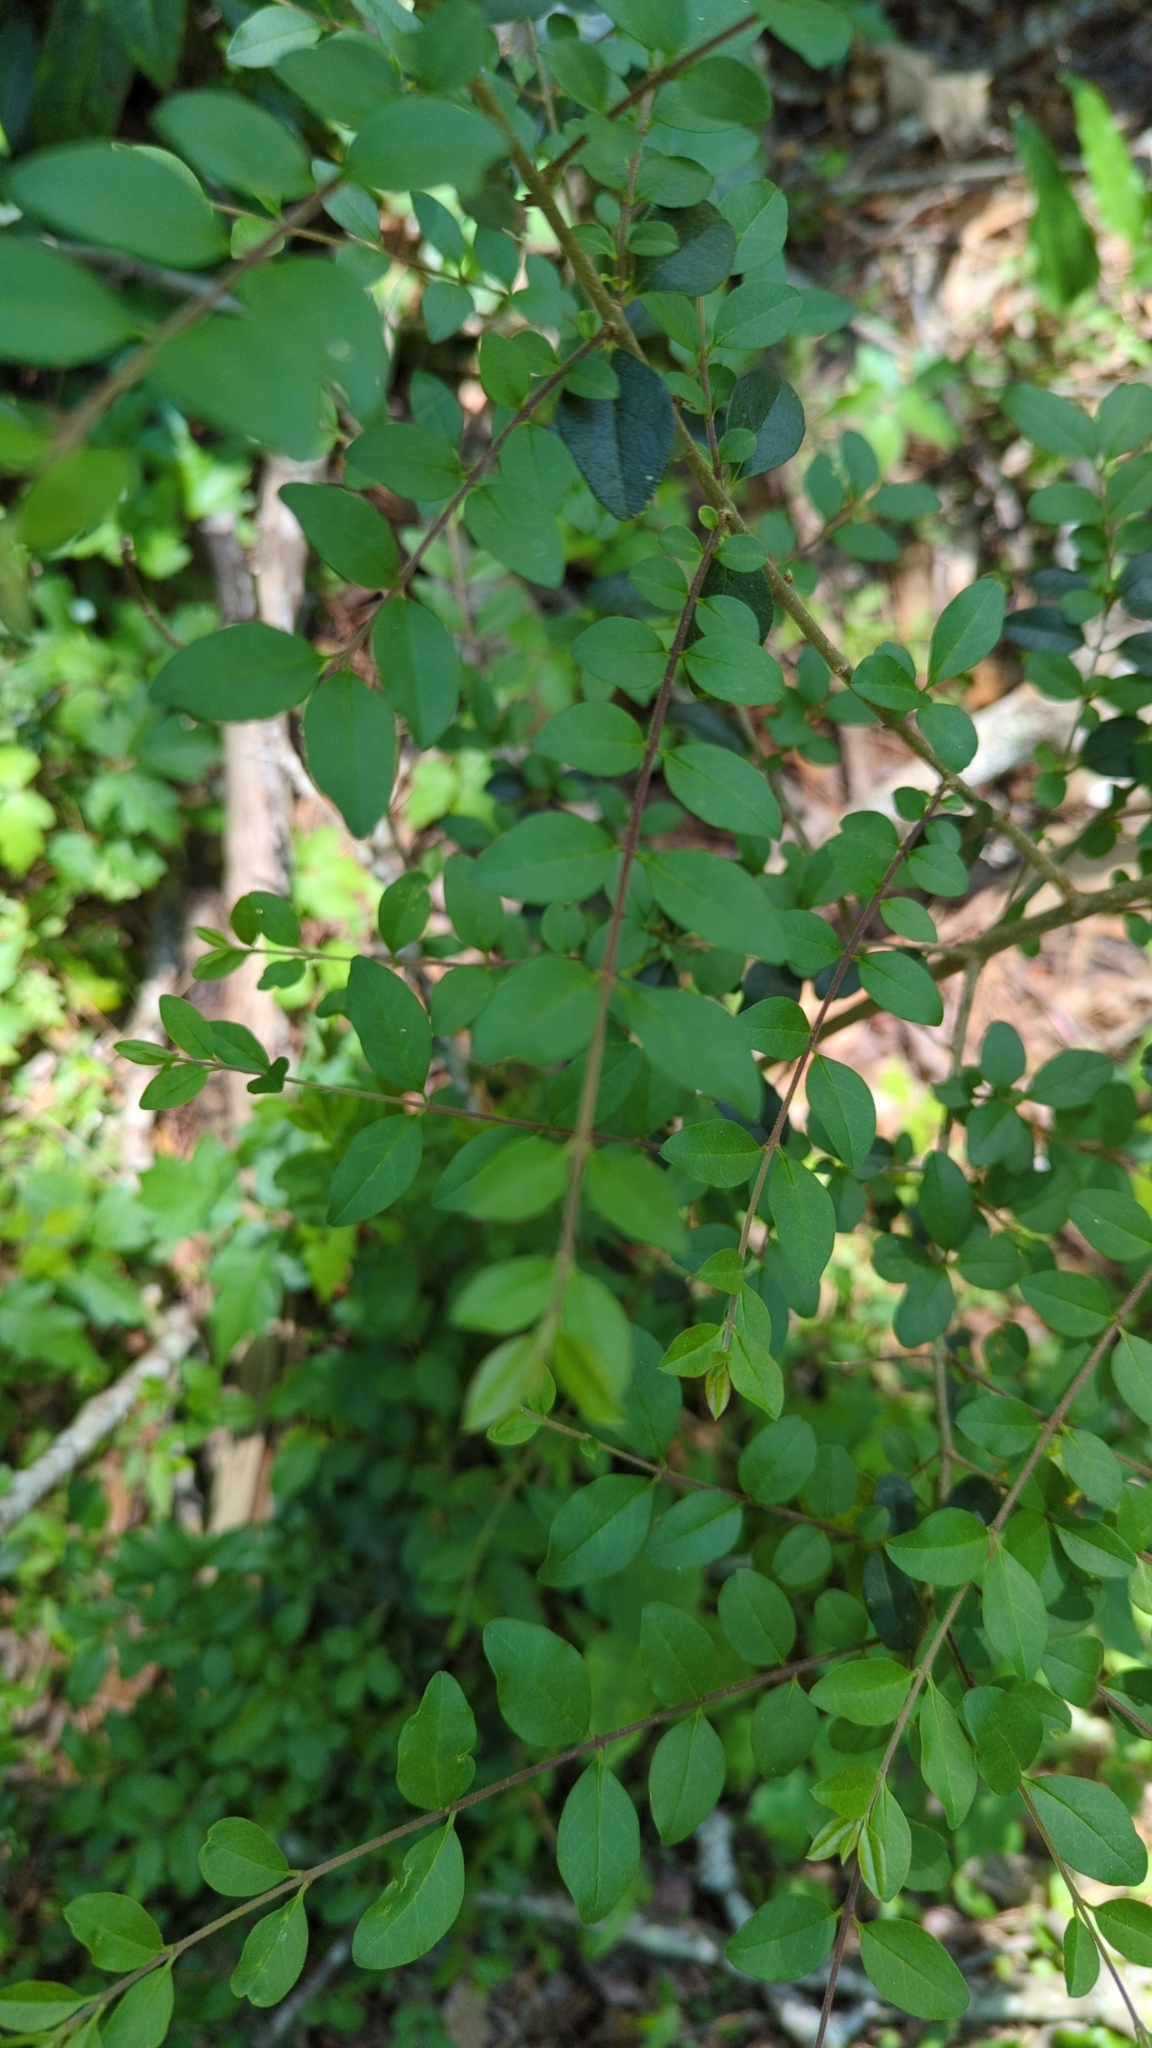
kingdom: Plantae
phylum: Tracheophyta
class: Magnoliopsida
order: Lamiales
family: Oleaceae
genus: Ligustrum
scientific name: Ligustrum sinense
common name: Chinese privet
